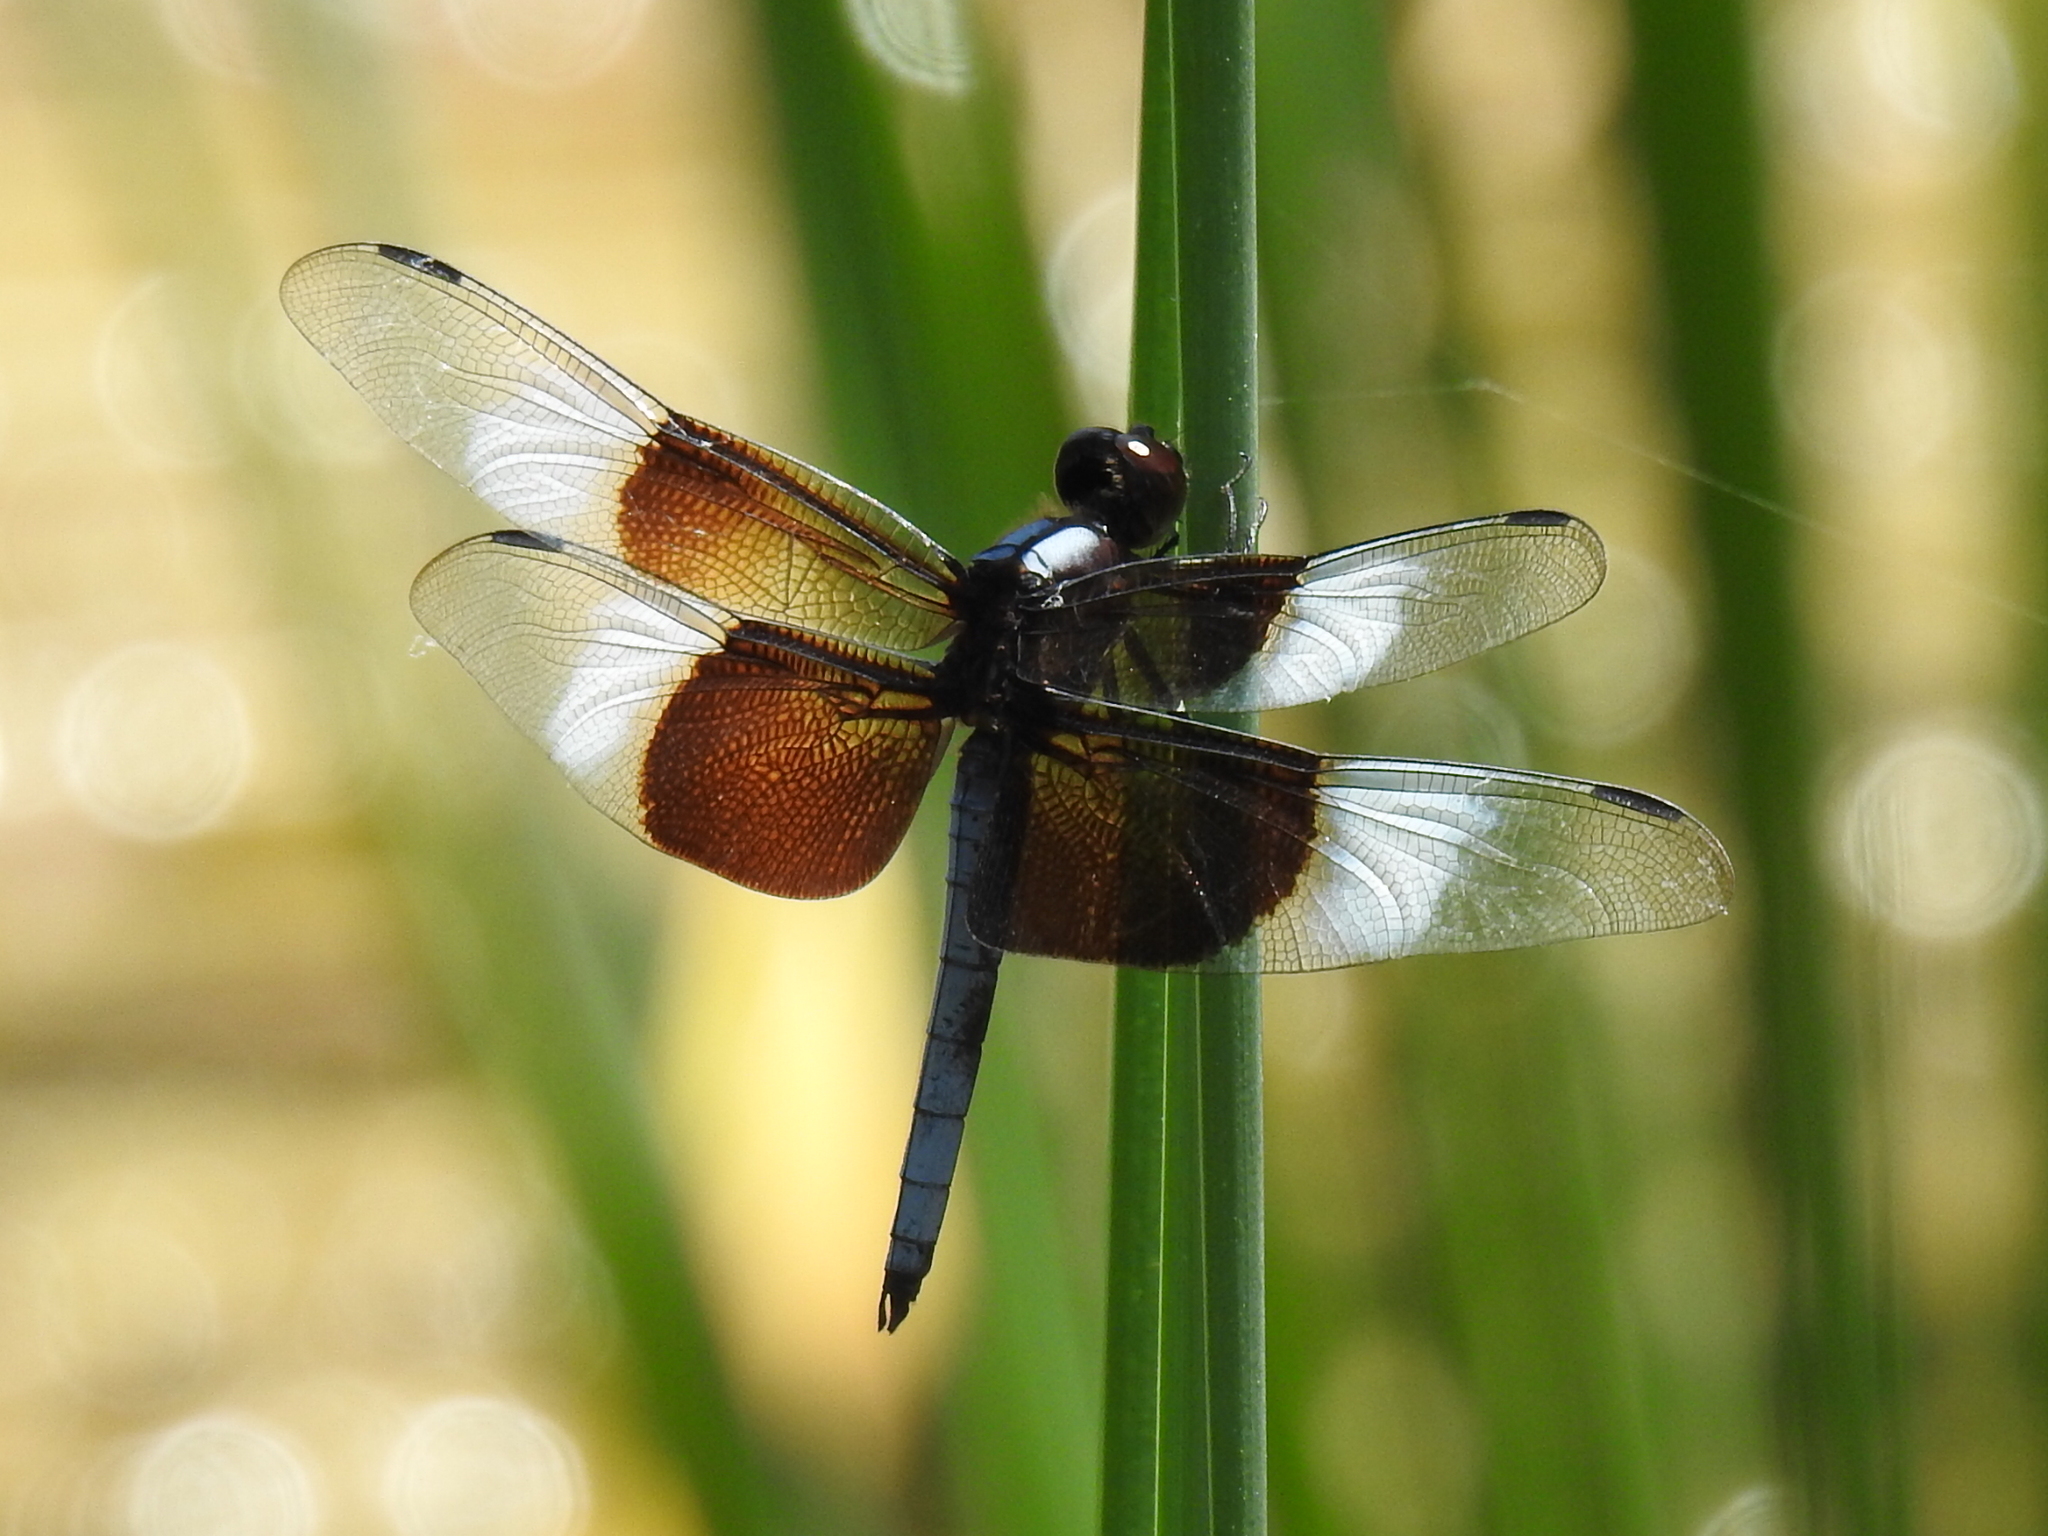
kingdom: Animalia
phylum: Arthropoda
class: Insecta
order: Odonata
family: Libellulidae
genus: Libellula
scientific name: Libellula luctuosa
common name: Widow skimmer
